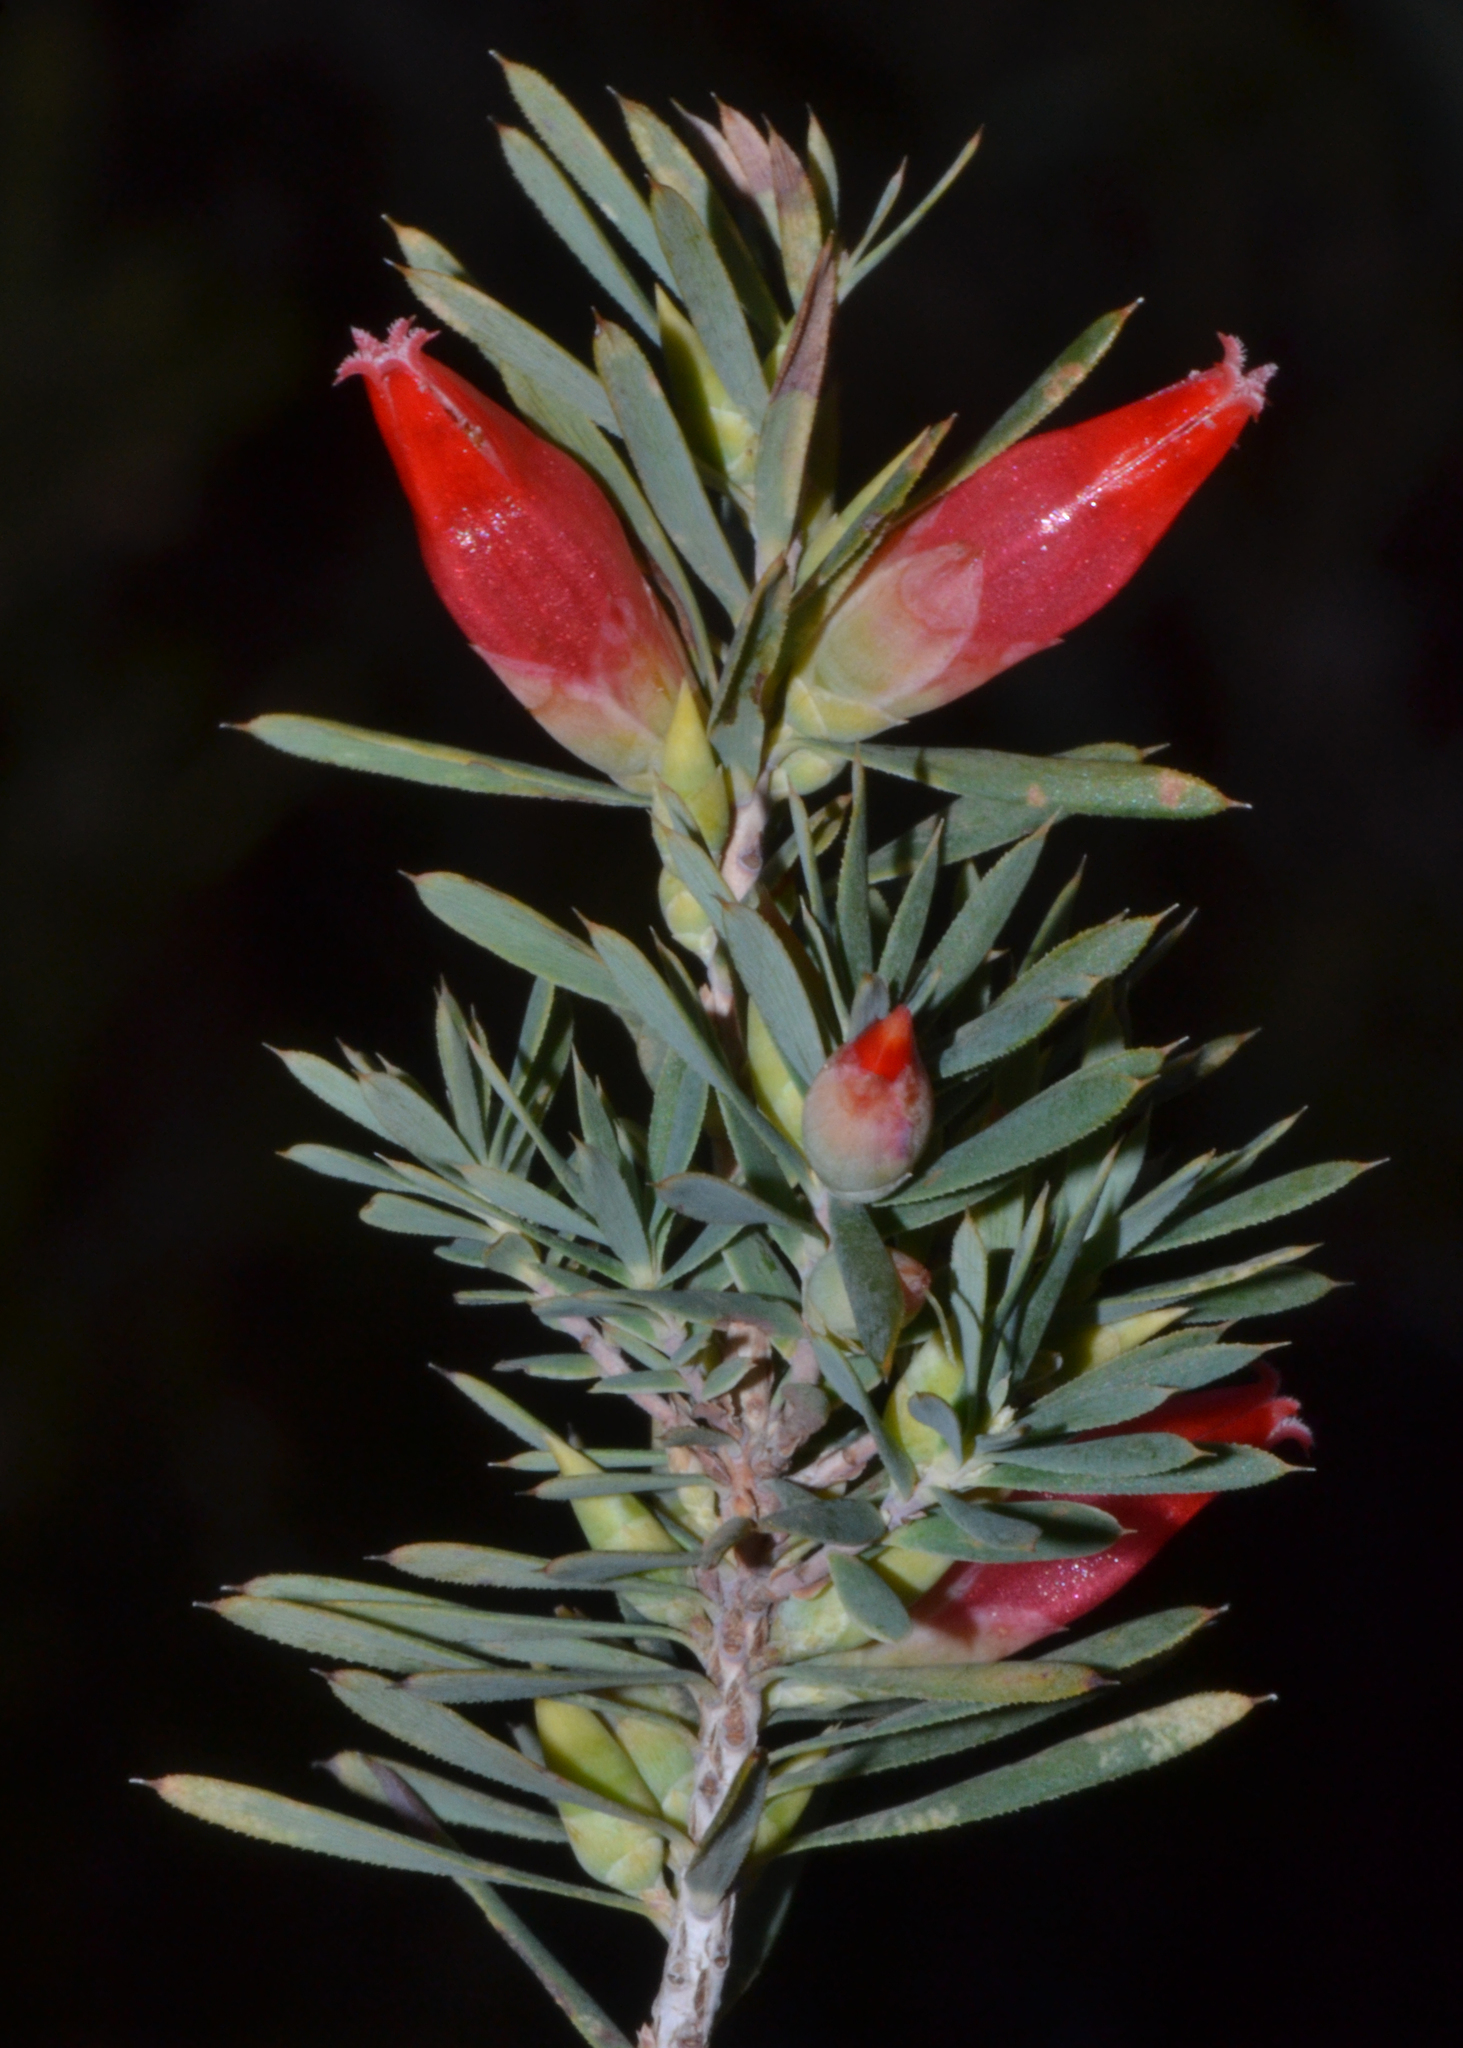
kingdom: Plantae
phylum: Tracheophyta
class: Magnoliopsida
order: Ericales
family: Ericaceae
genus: Styphelia
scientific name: Styphelia tortifolia
